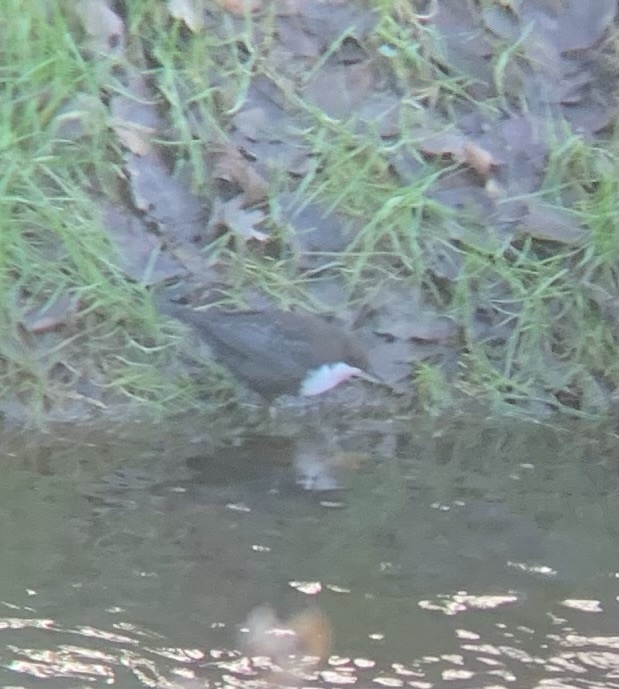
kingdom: Animalia
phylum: Chordata
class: Aves
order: Passeriformes
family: Cinclidae
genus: Cinclus
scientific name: Cinclus cinclus
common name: White-throated dipper
